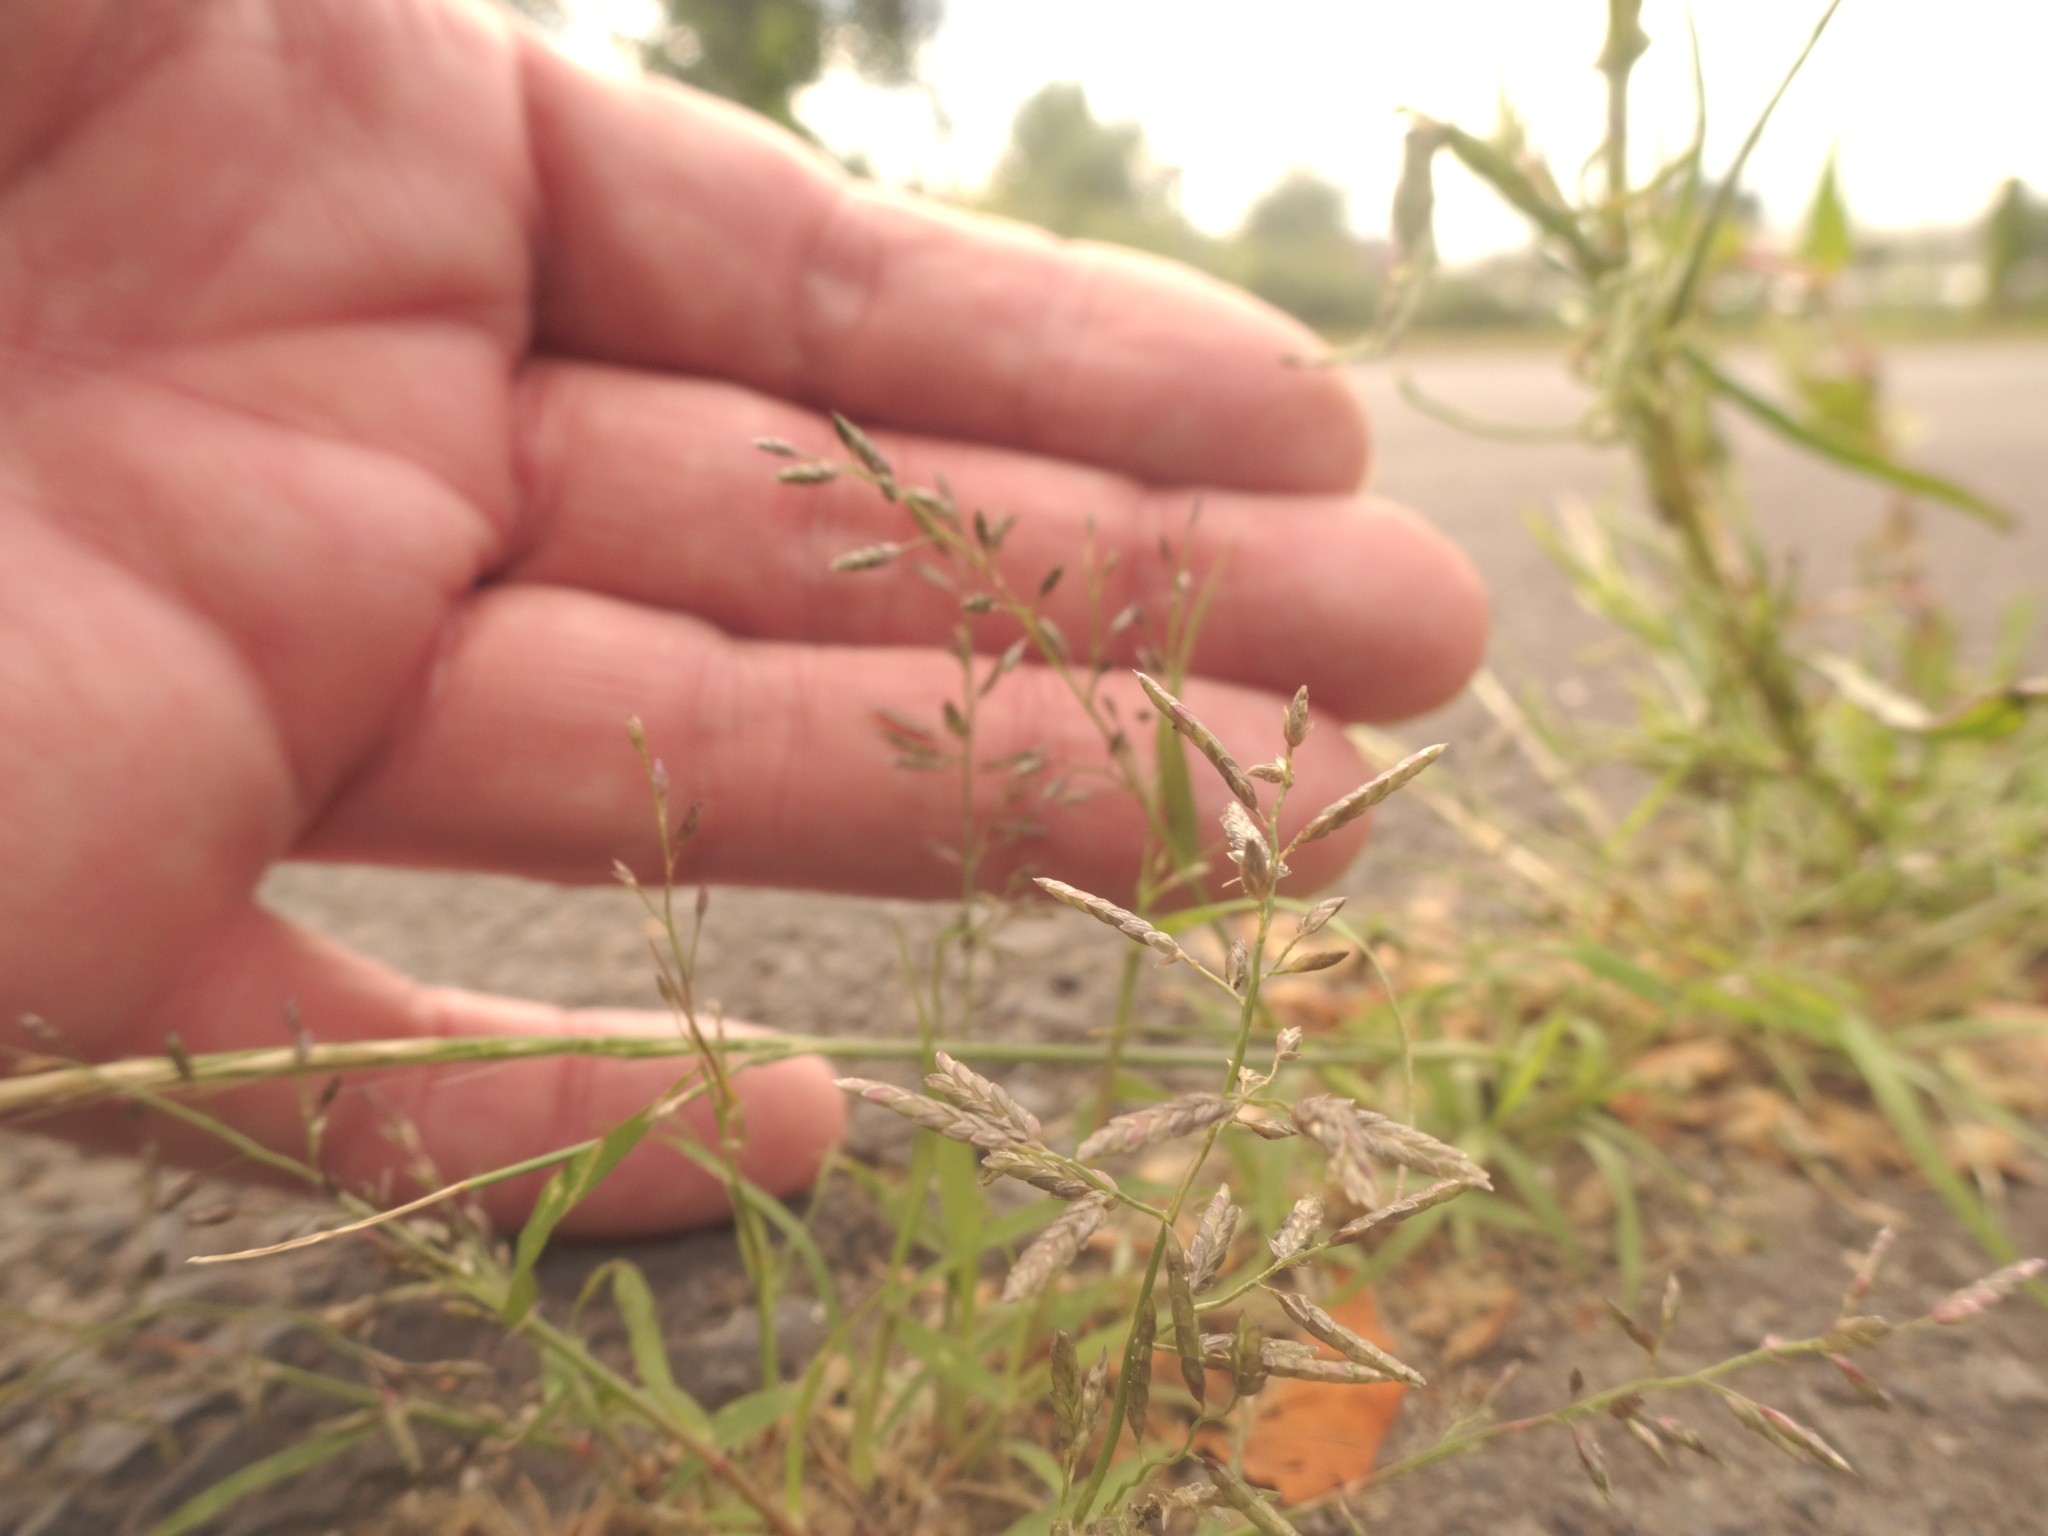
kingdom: Plantae
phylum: Tracheophyta
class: Liliopsida
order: Poales
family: Poaceae
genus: Eragrostis
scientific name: Eragrostis minor
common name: Small love-grass
